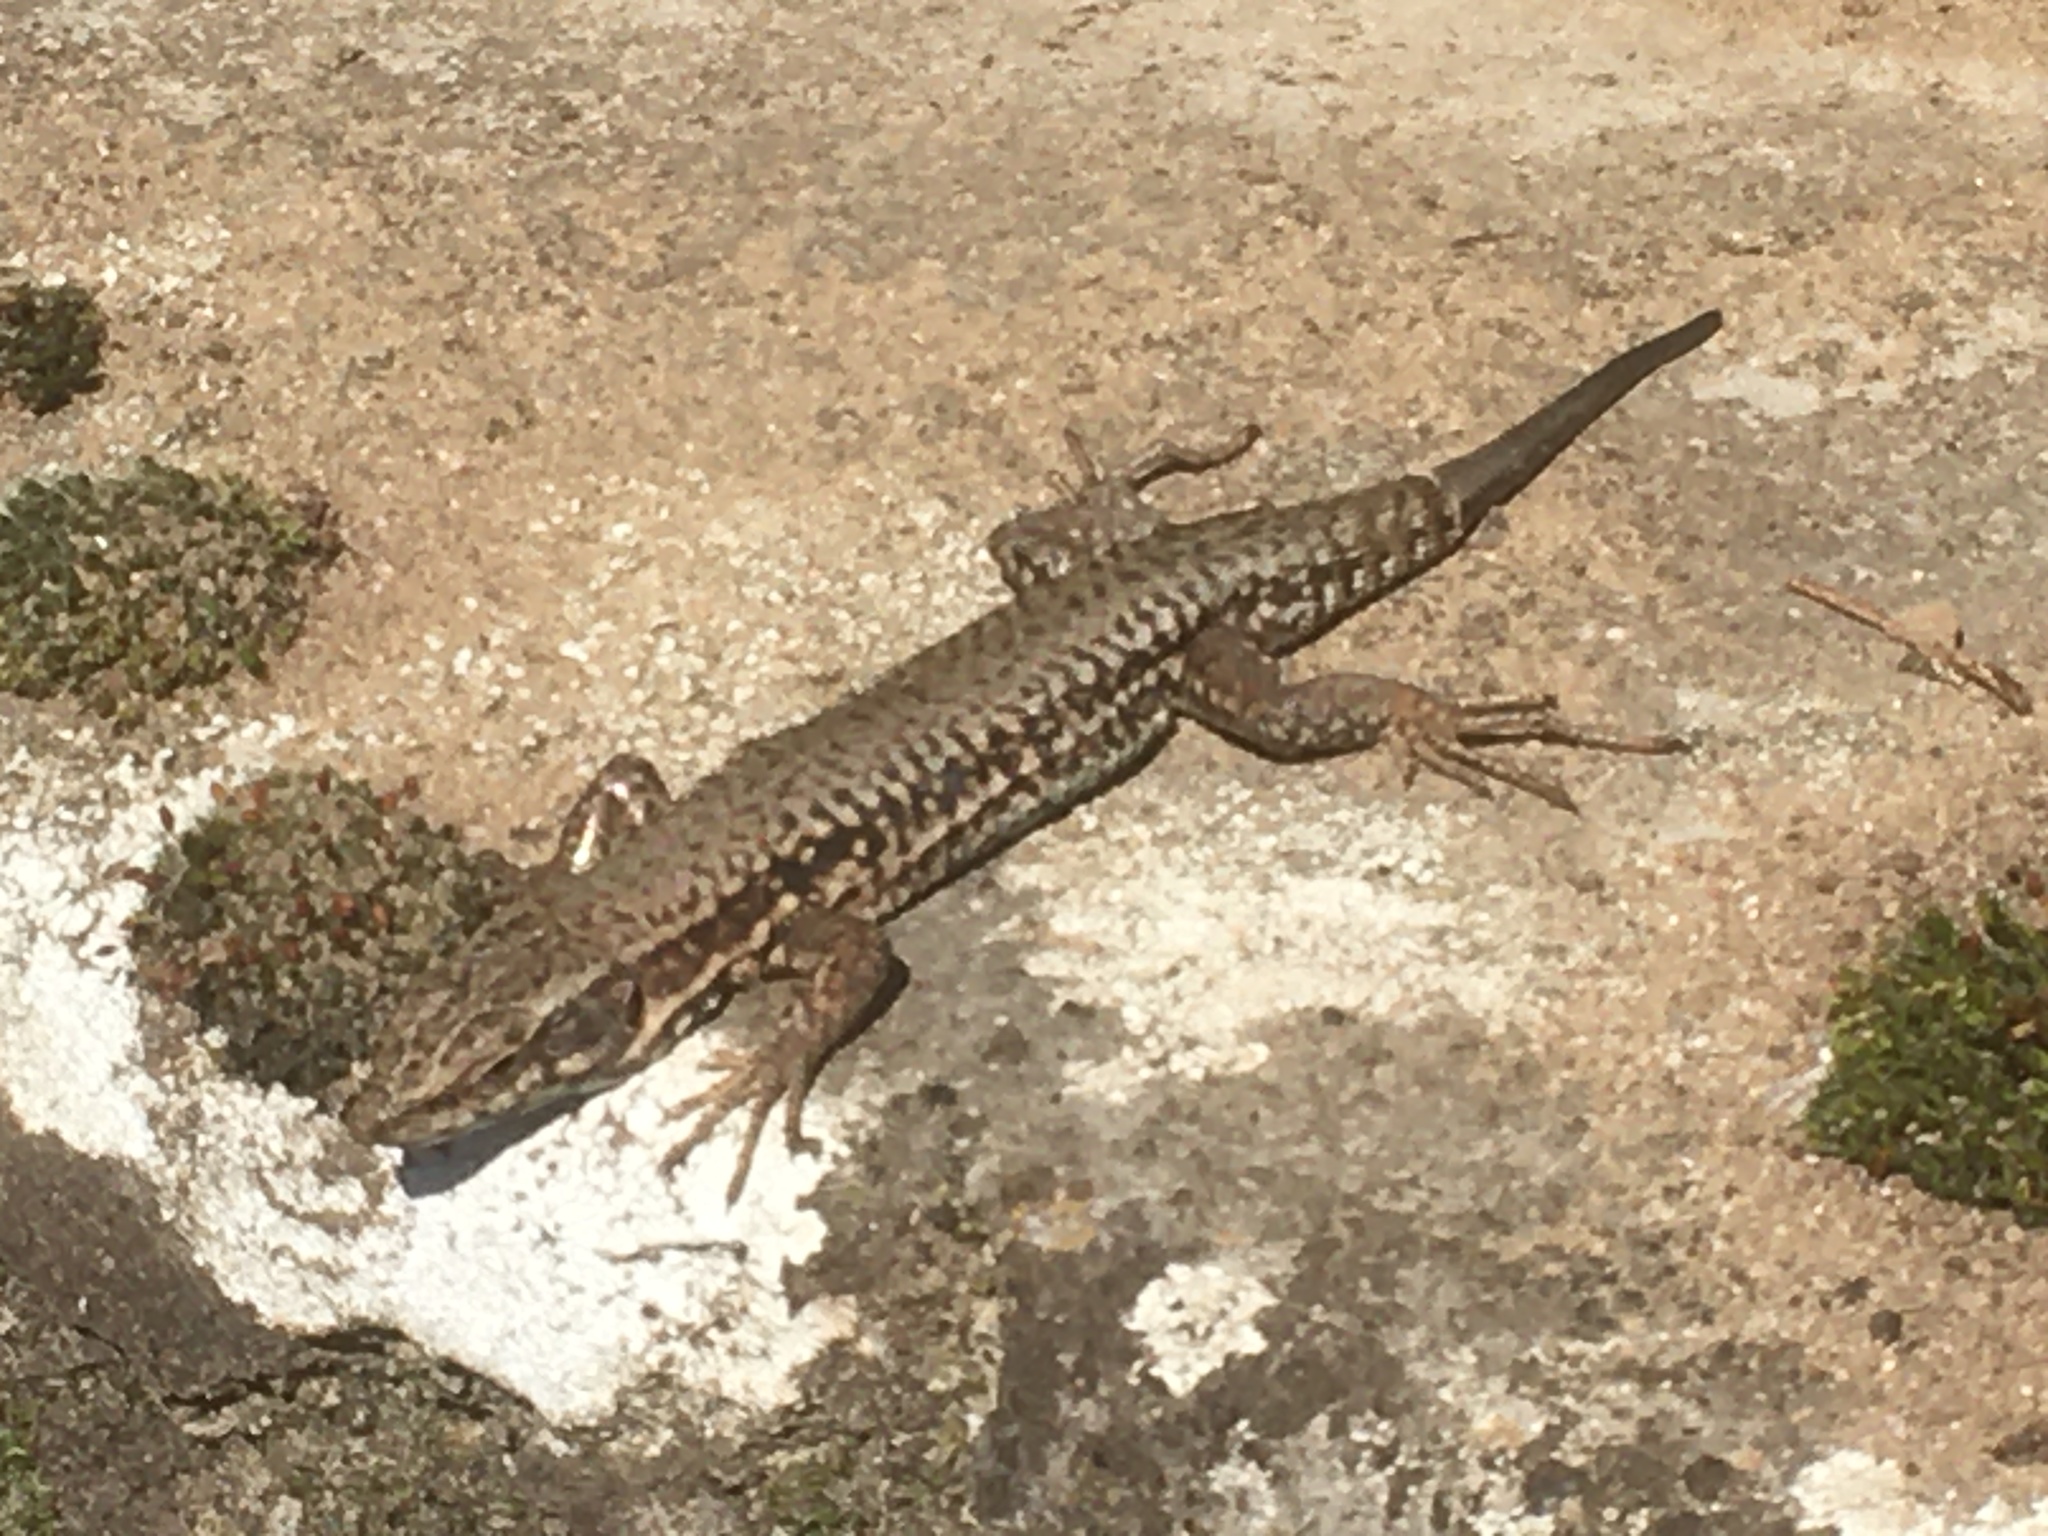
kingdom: Animalia
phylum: Chordata
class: Squamata
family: Lacertidae
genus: Podarcis
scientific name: Podarcis muralis
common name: Common wall lizard
